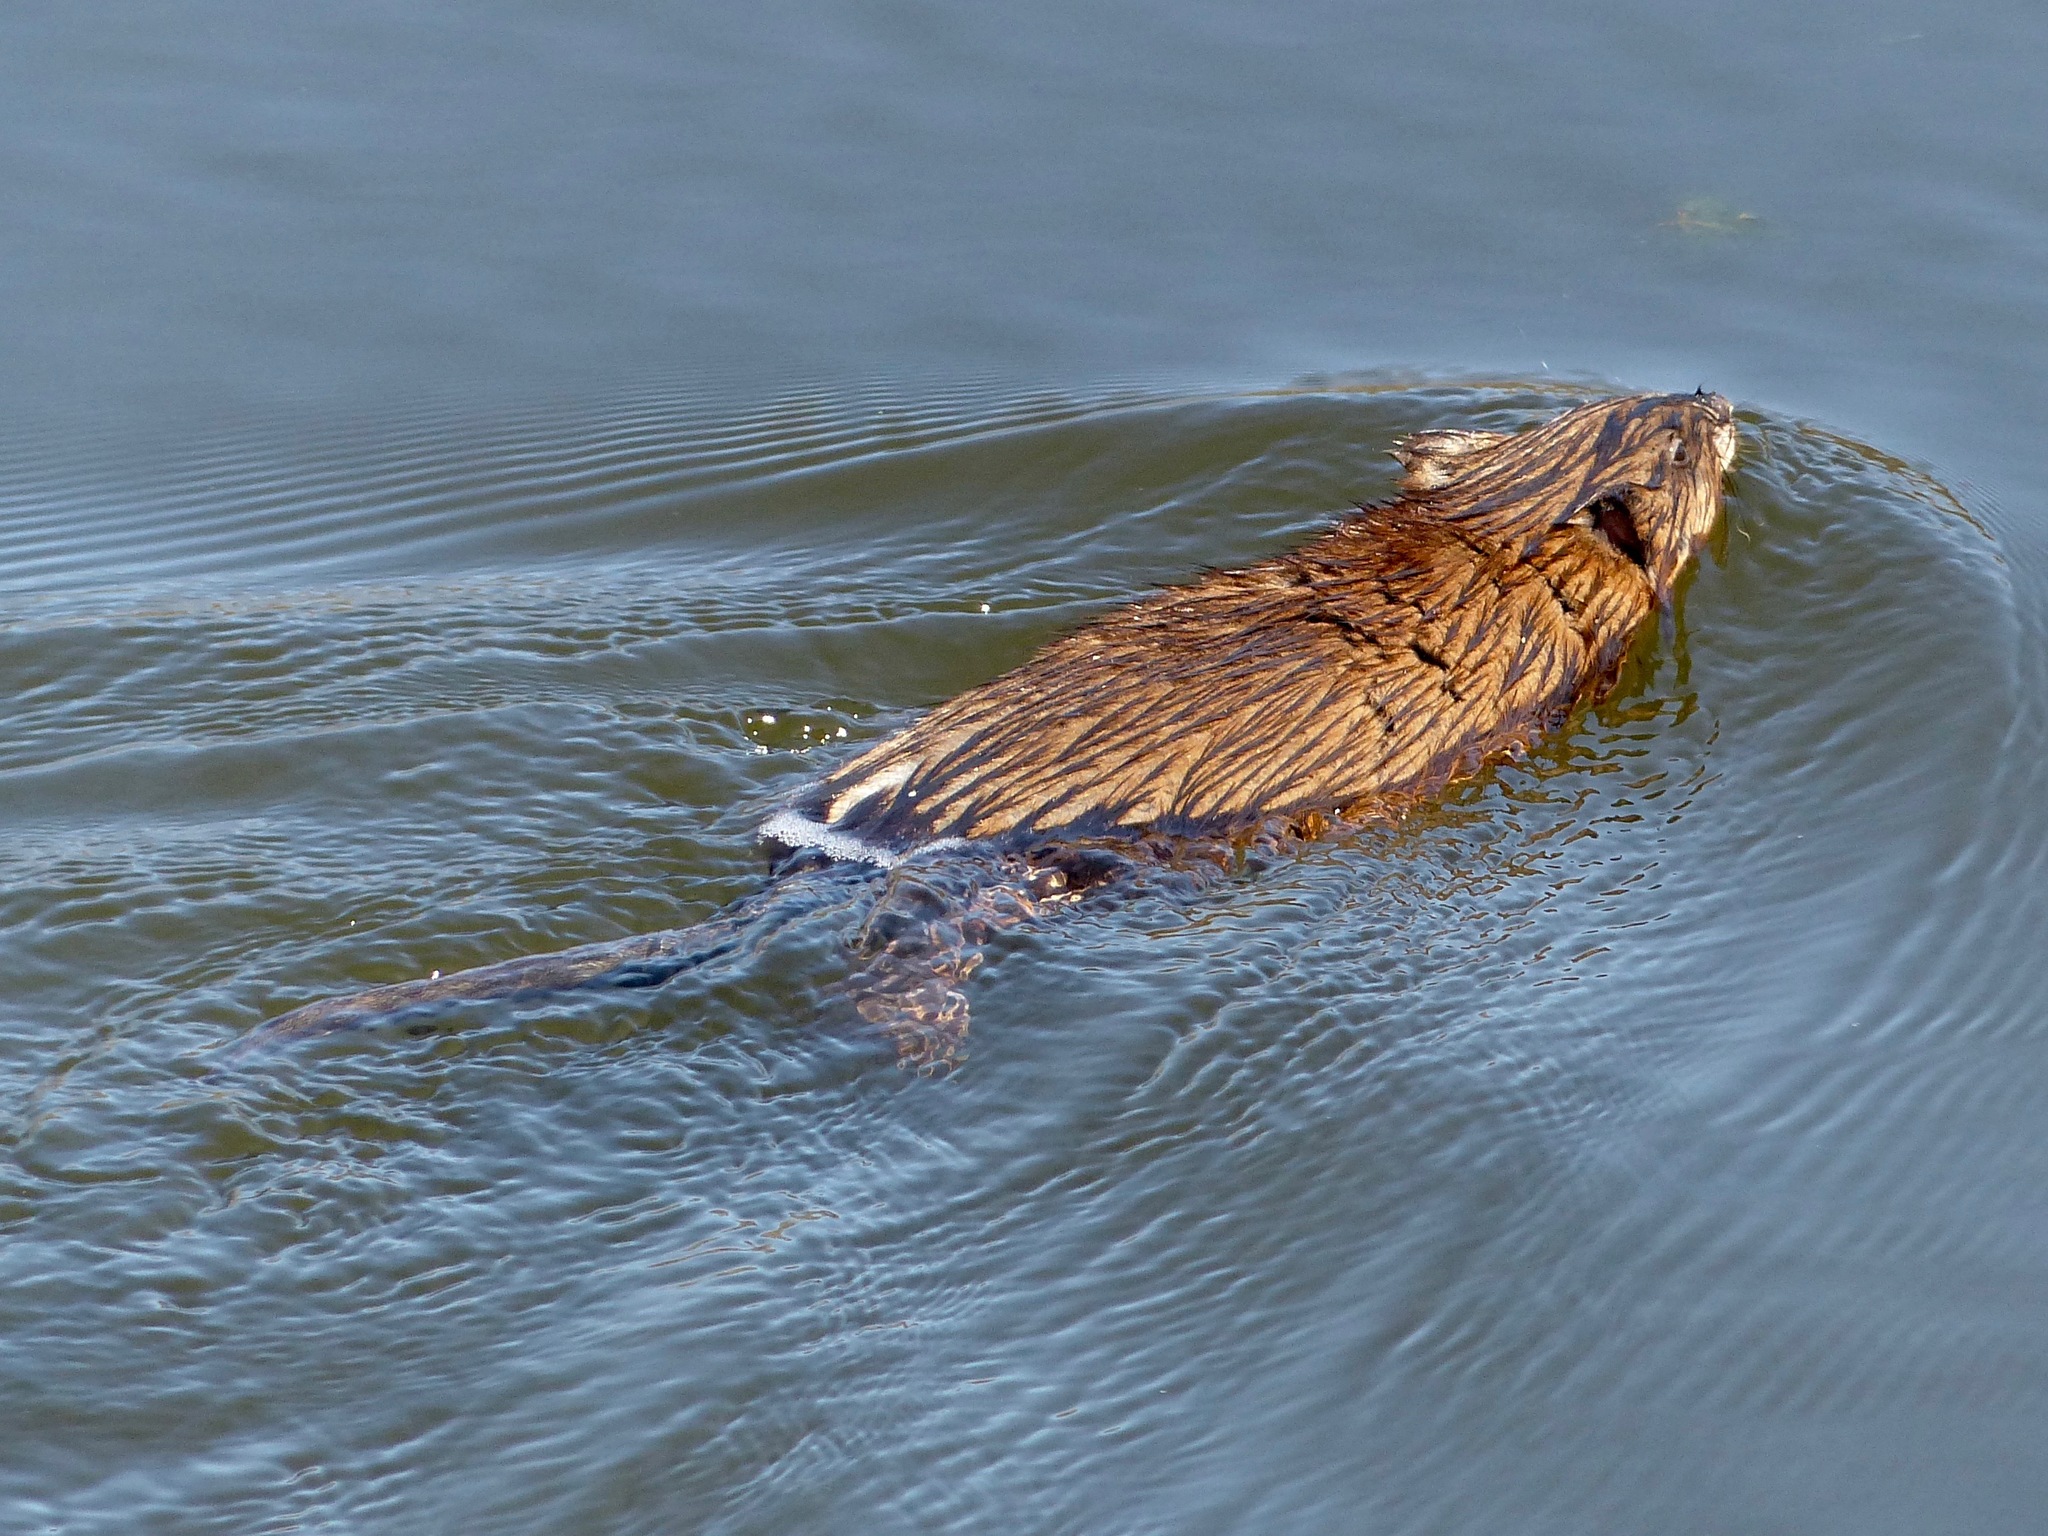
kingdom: Animalia
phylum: Chordata
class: Mammalia
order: Rodentia
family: Cricetidae
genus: Ondatra
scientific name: Ondatra zibethicus
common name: Muskrat
